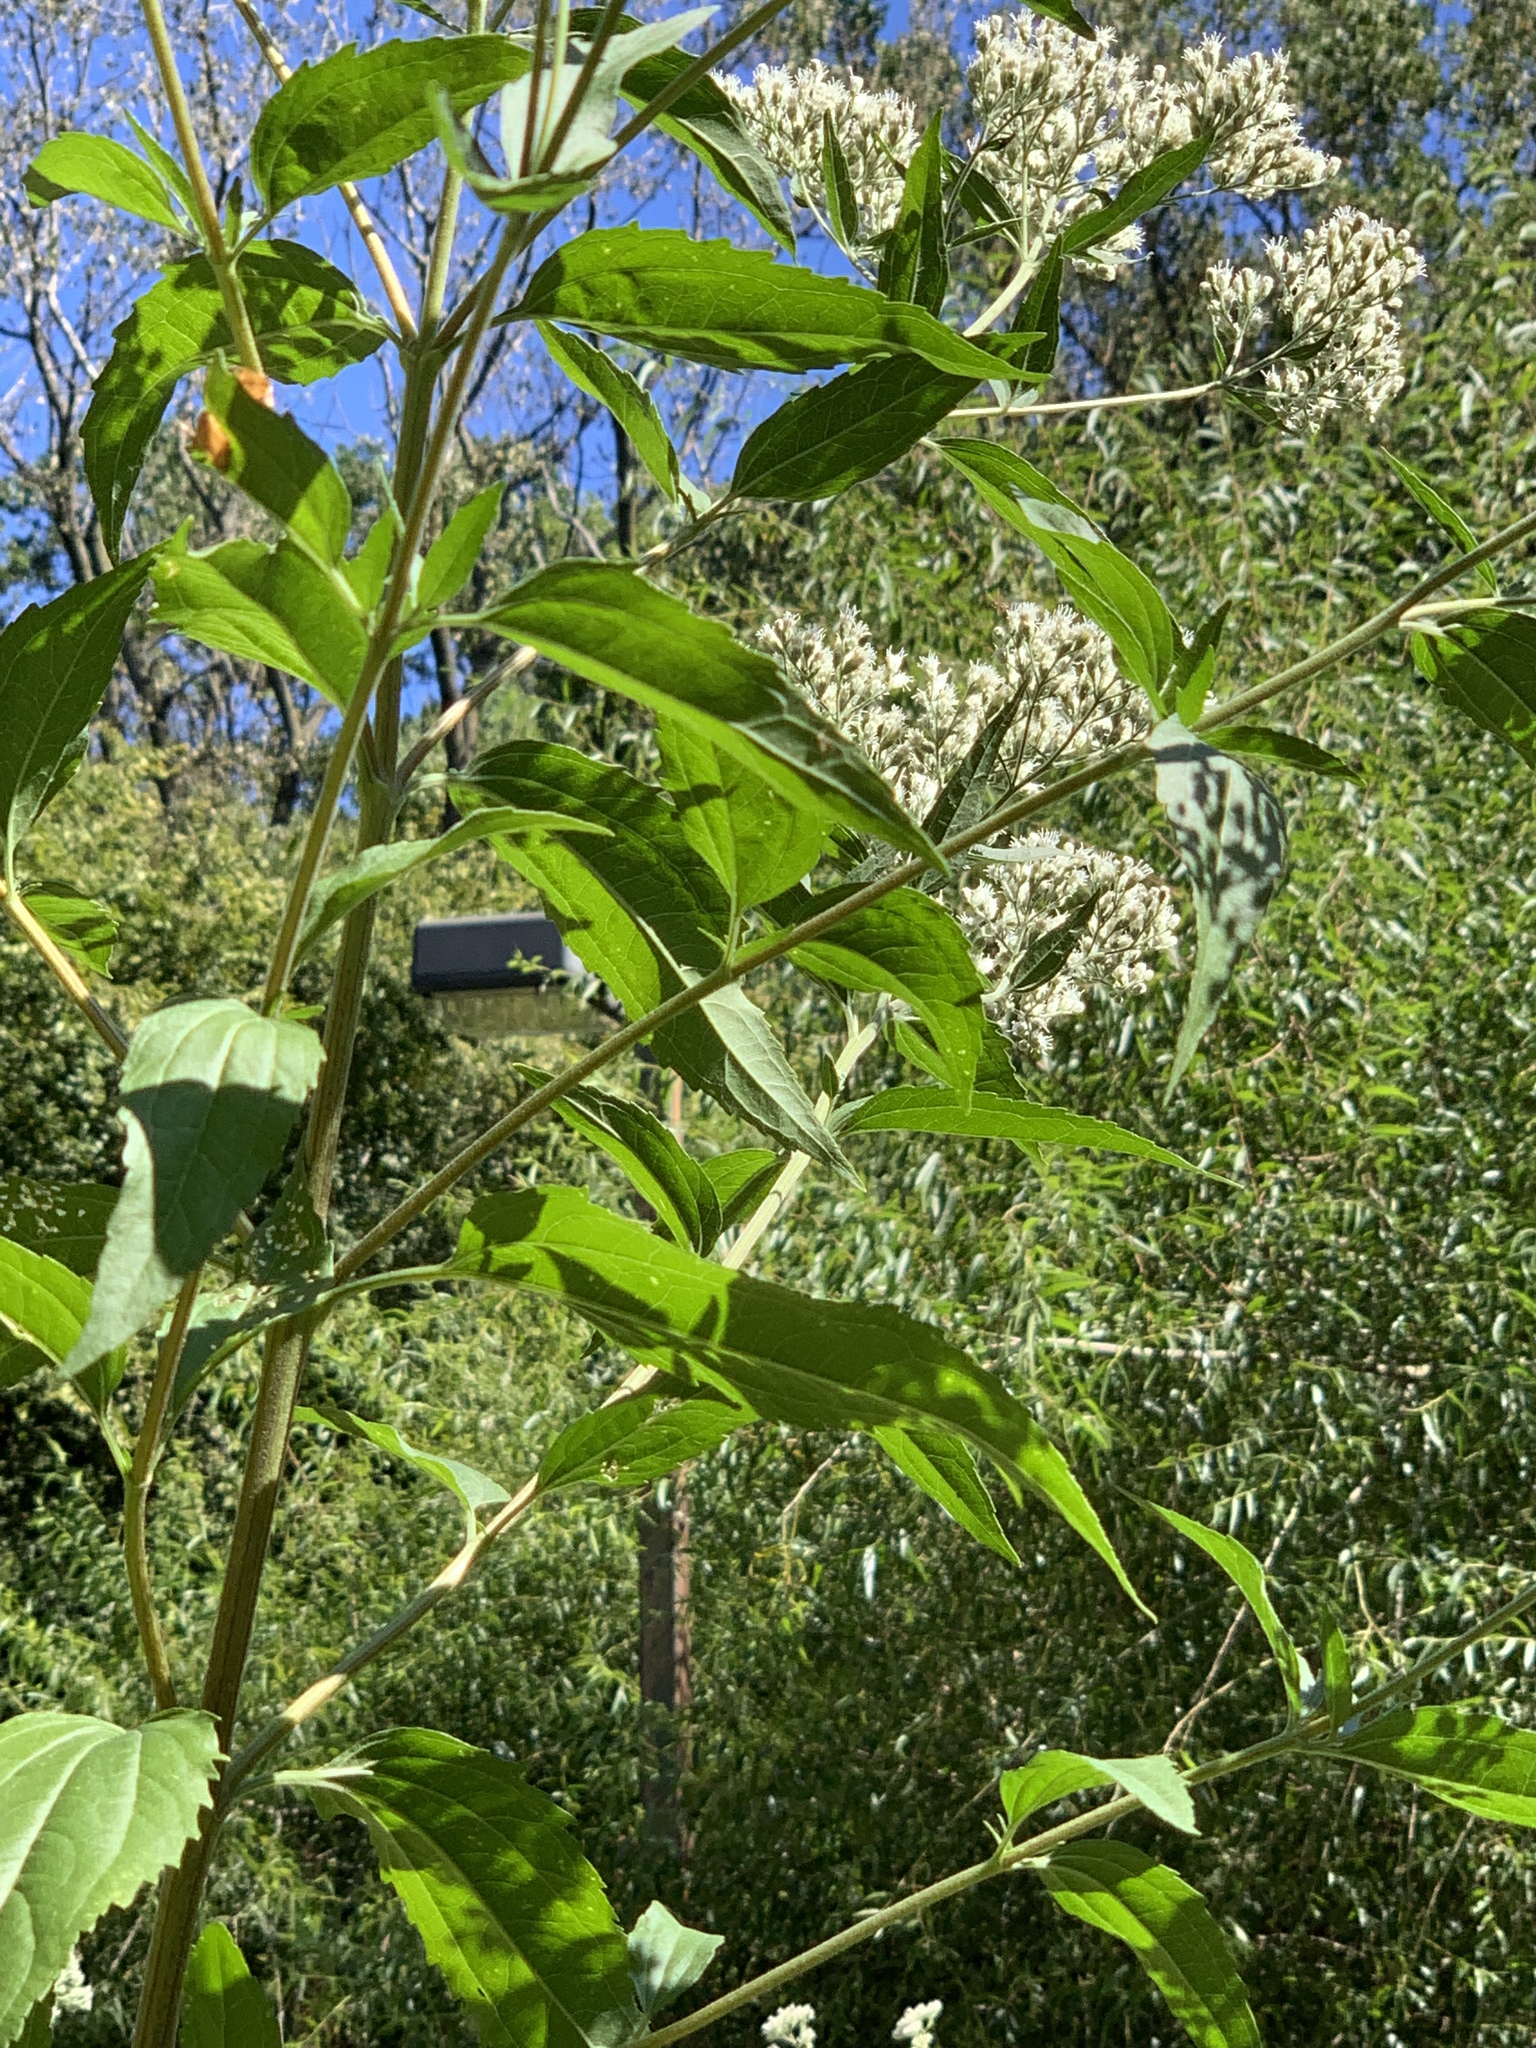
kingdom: Plantae
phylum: Tracheophyta
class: Magnoliopsida
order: Asterales
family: Asteraceae
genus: Eupatorium
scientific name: Eupatorium serotinum
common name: Late boneset
